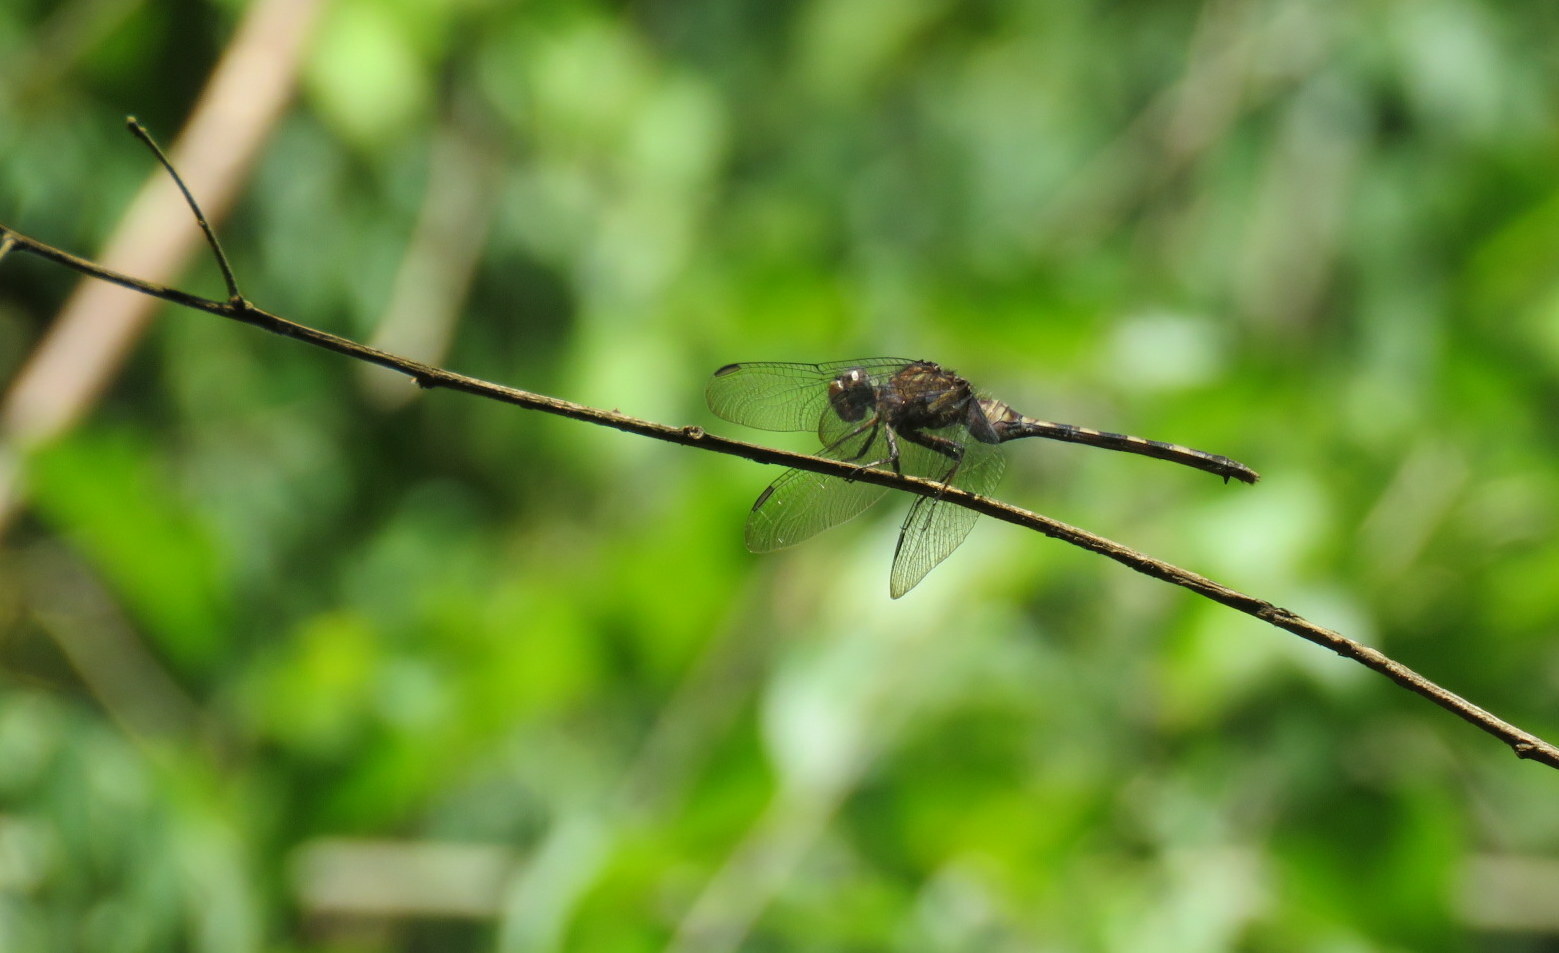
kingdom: Animalia
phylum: Arthropoda
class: Insecta
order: Odonata
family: Libellulidae
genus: Erythemis
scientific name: Erythemis plebeja
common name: Pin-tailed pondhawk
